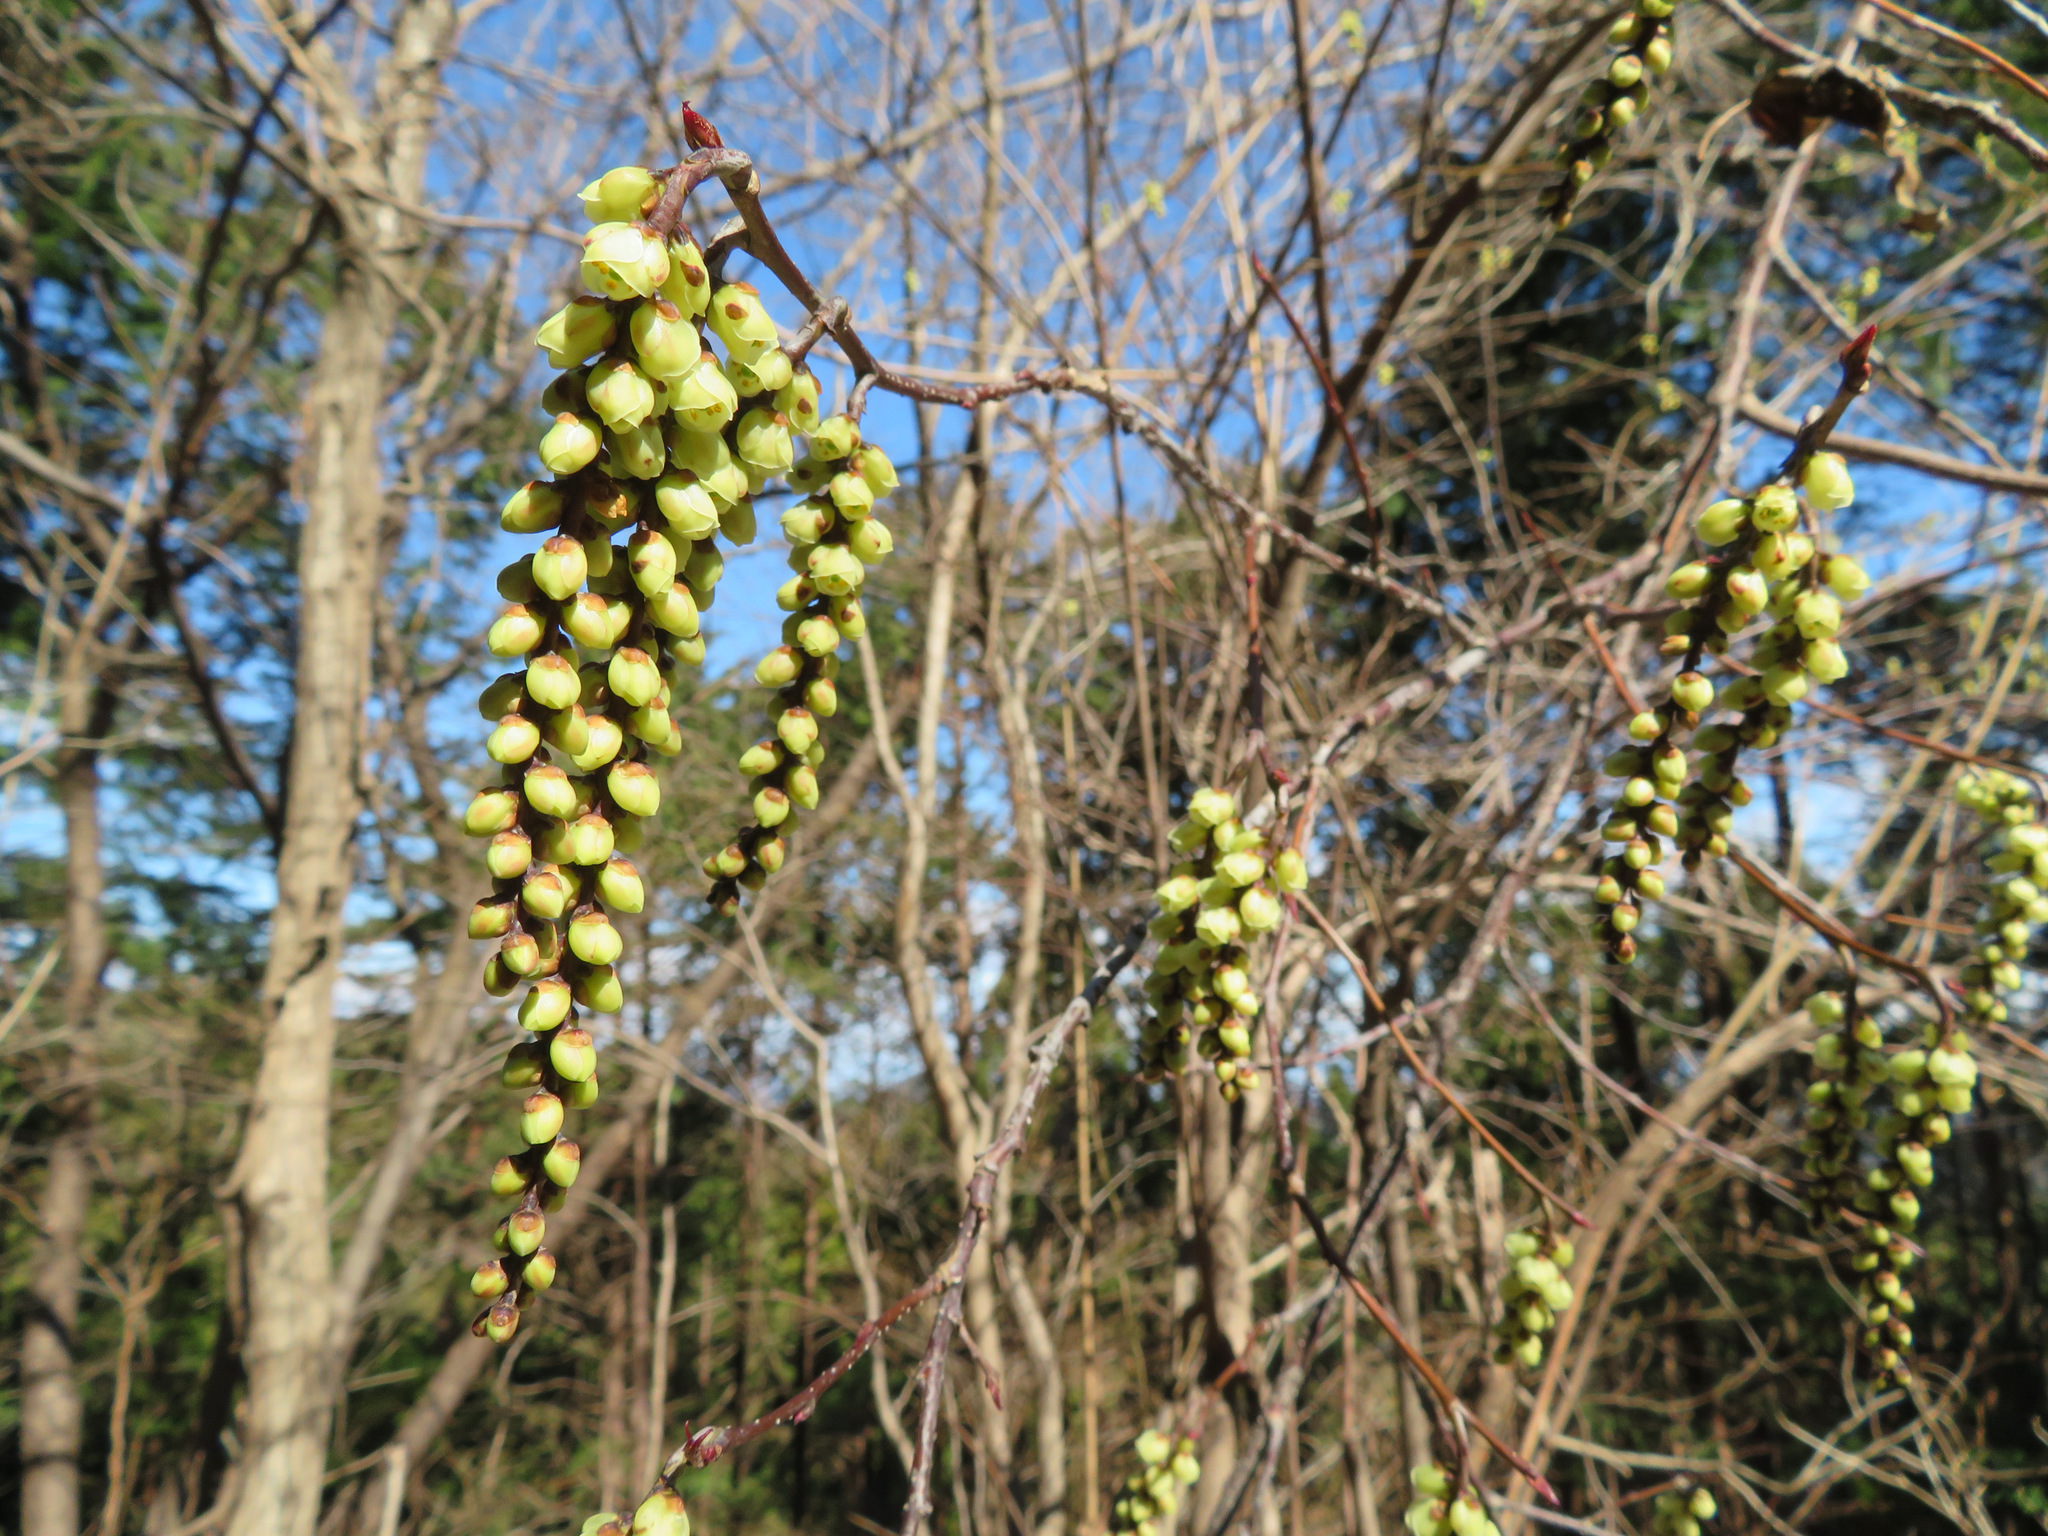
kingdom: Plantae
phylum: Tracheophyta
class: Magnoliopsida
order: Crossosomatales
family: Stachyuraceae
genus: Stachyurus
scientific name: Stachyurus praecox
